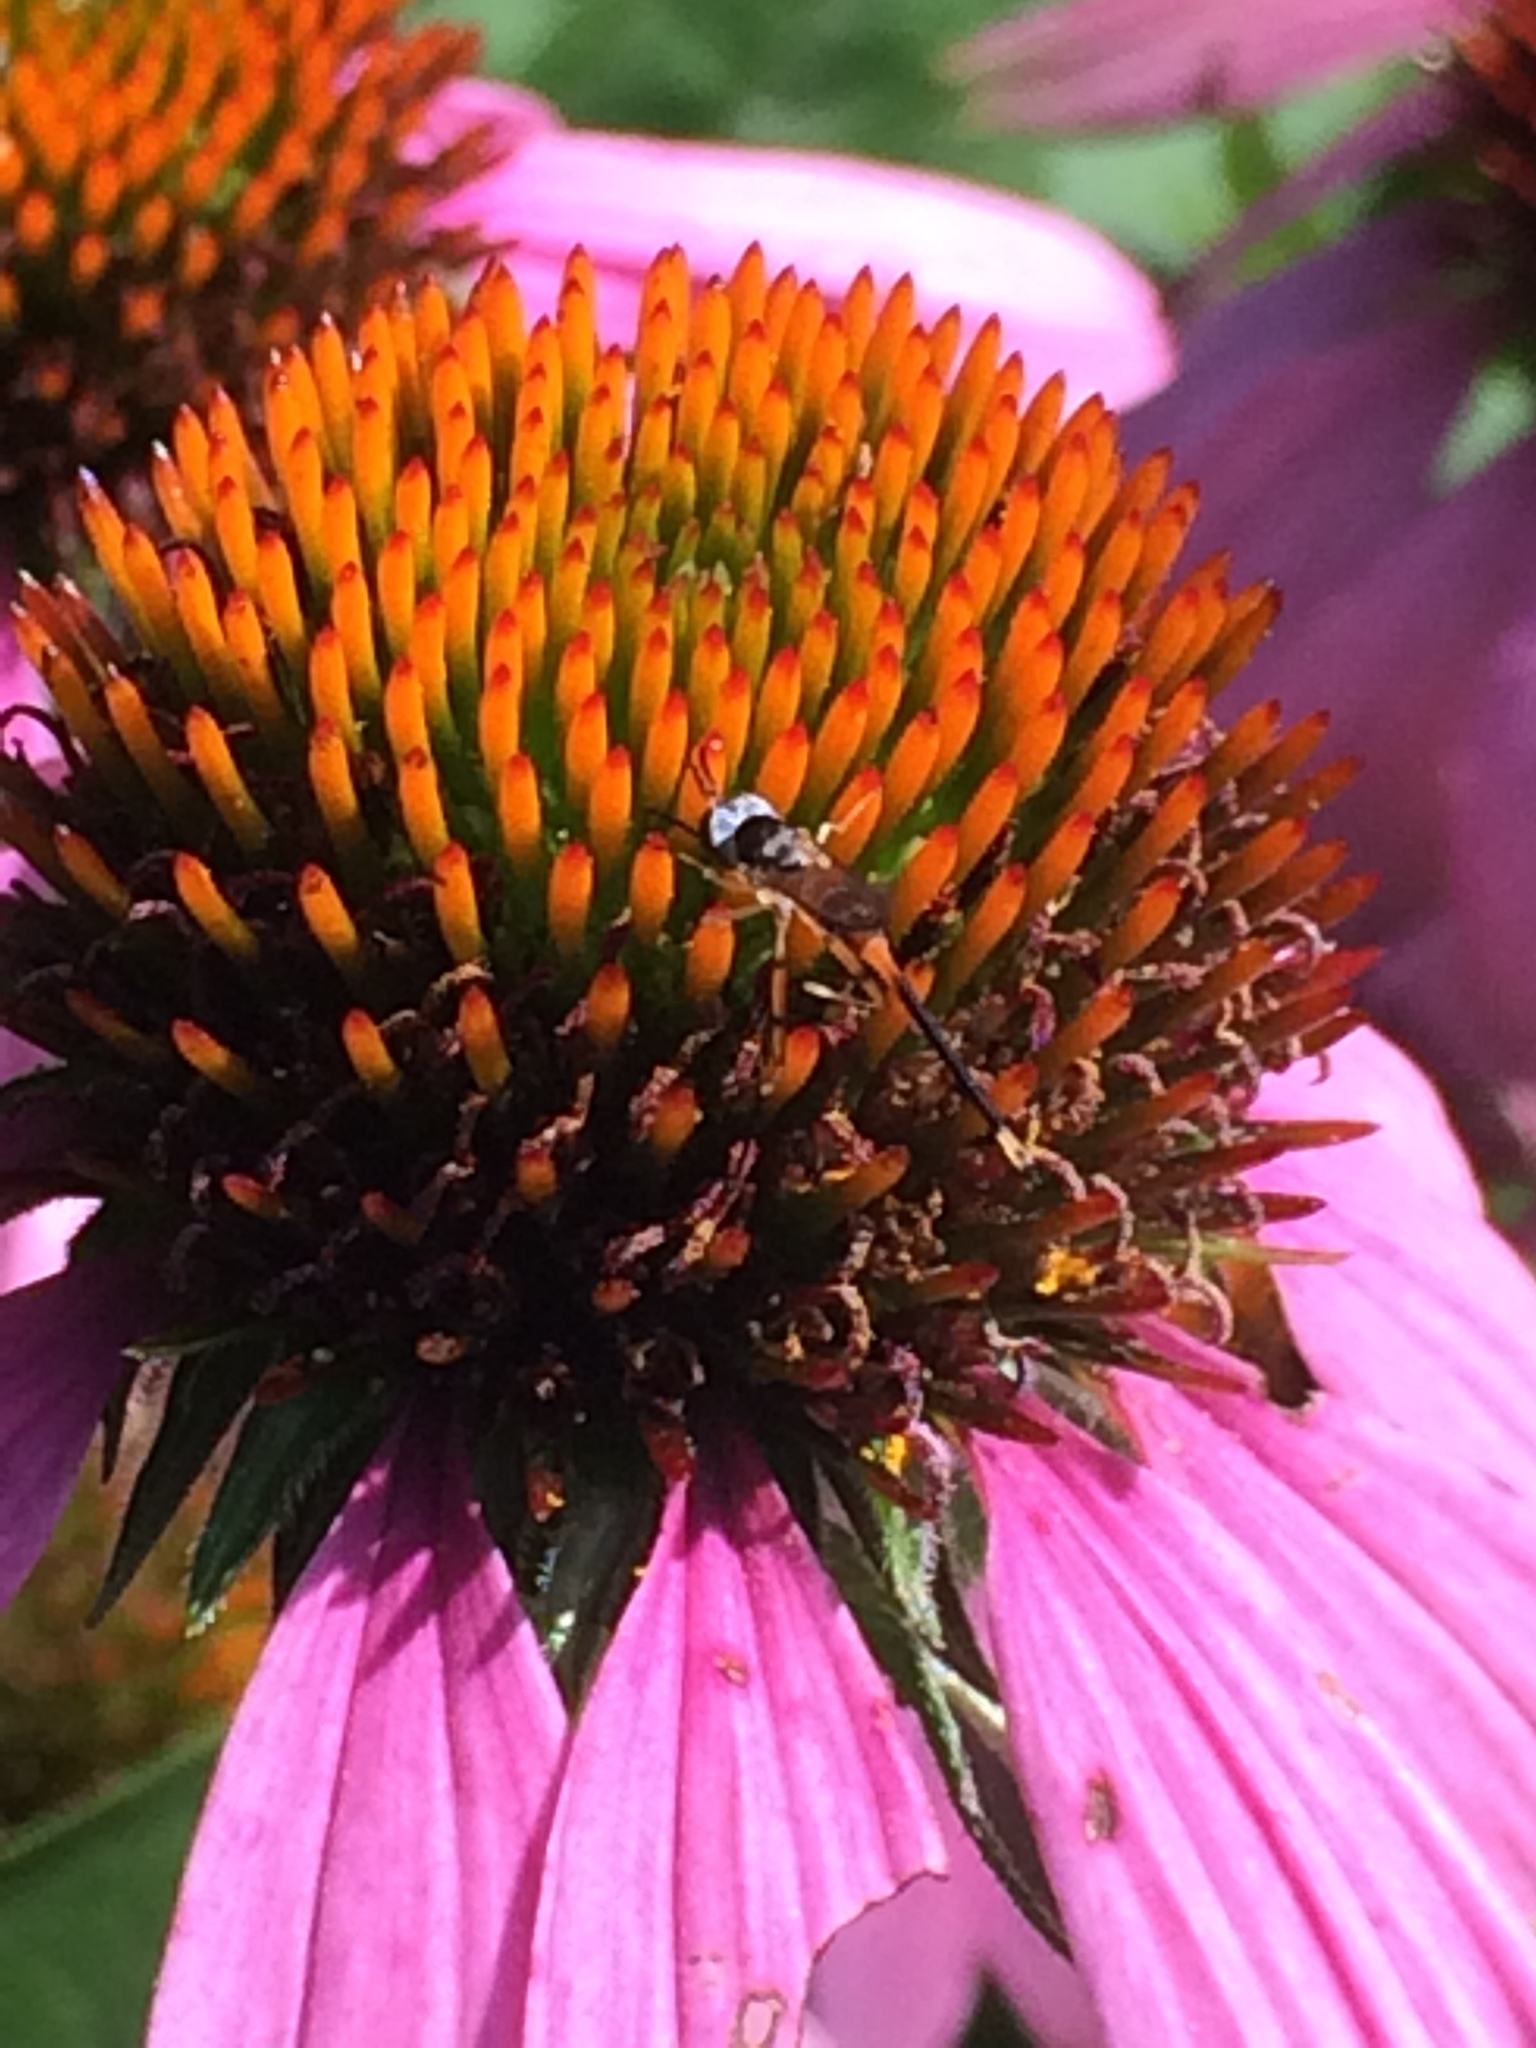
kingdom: Animalia
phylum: Arthropoda
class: Insecta
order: Diptera
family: Conopidae
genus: Stylogaster
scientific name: Stylogaster neglecta
